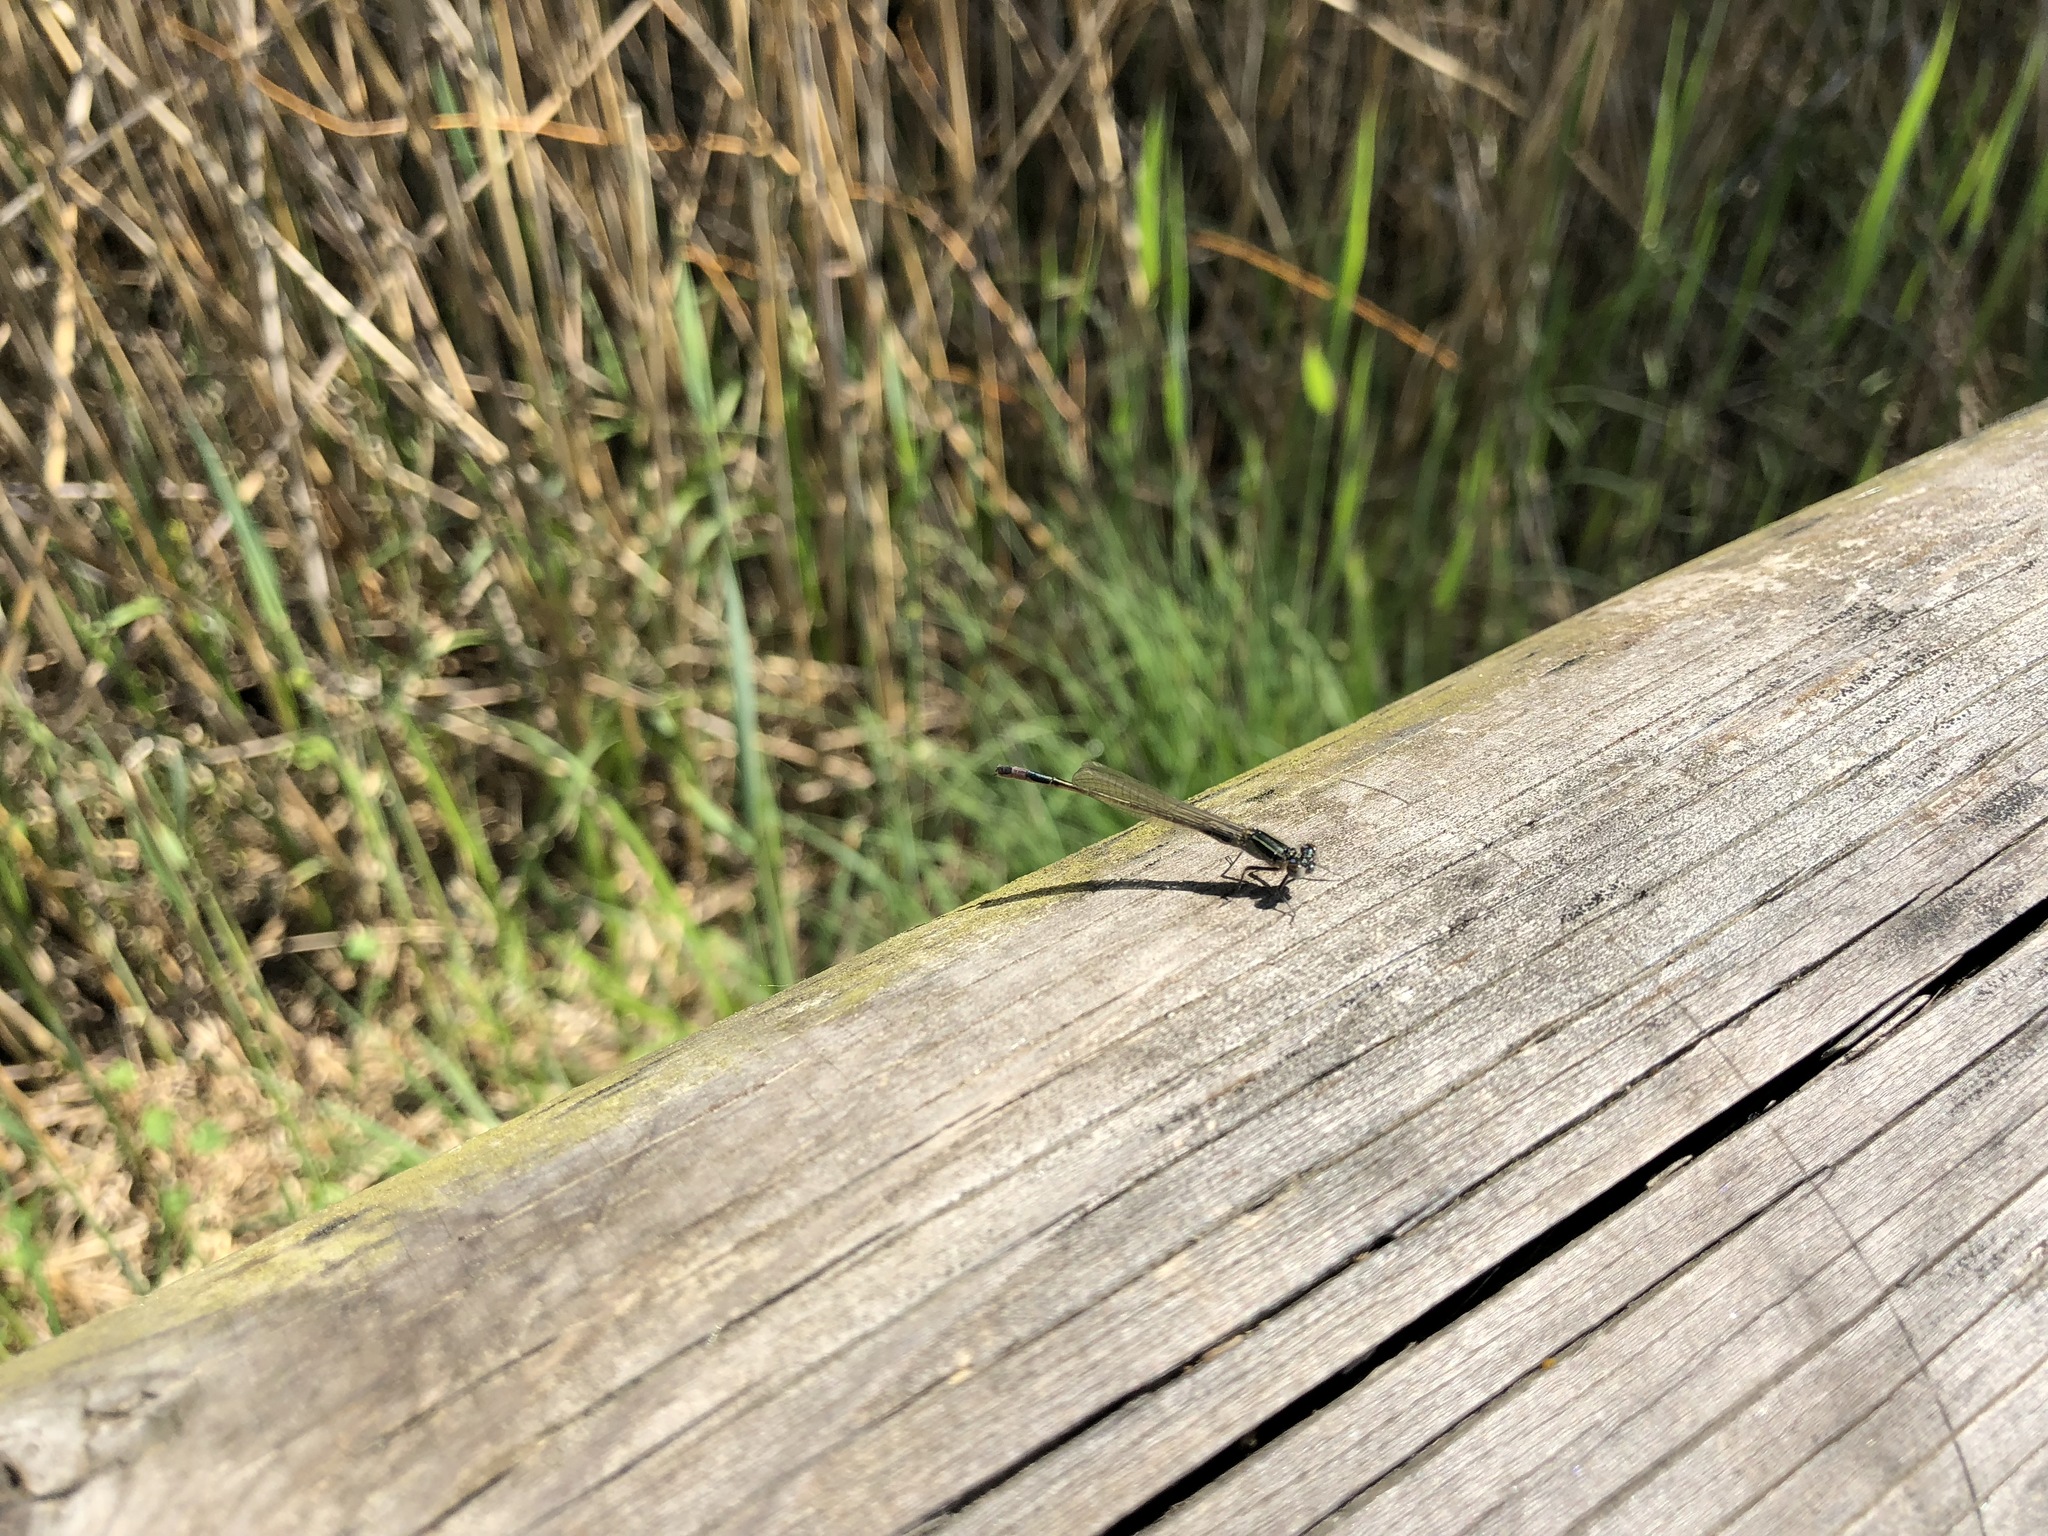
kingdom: Animalia
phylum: Arthropoda
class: Insecta
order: Odonata
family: Coenagrionidae
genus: Ischnura
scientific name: Ischnura elegans
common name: Blue-tailed damselfly
